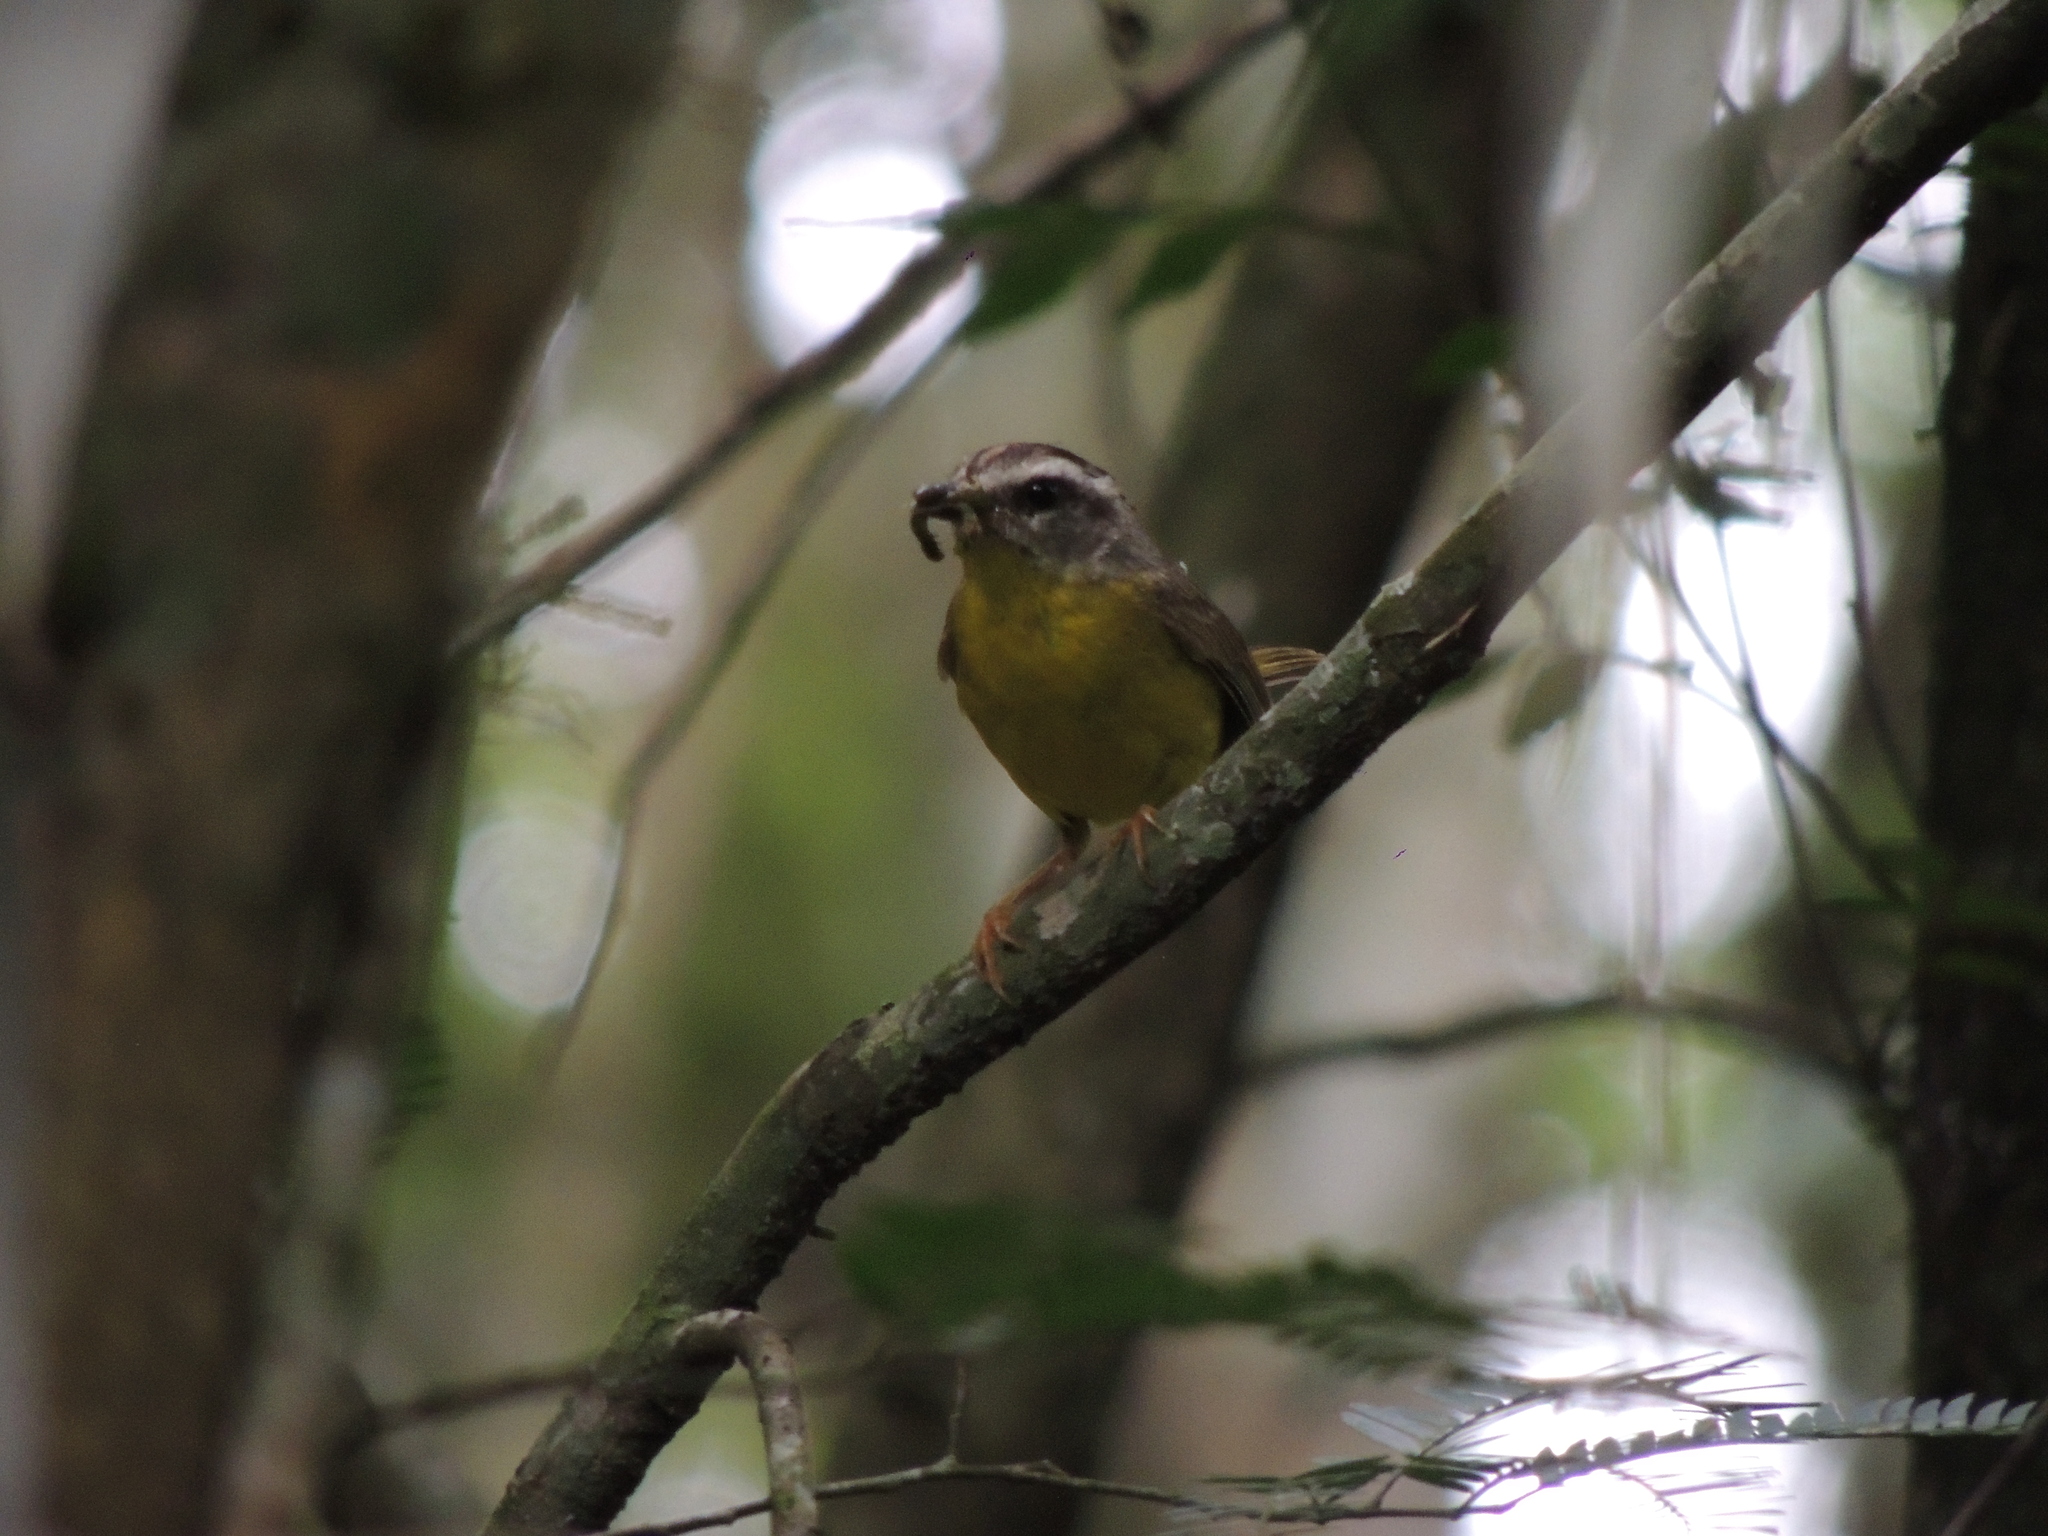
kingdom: Animalia
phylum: Chordata
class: Aves
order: Passeriformes
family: Parulidae
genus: Basileuterus
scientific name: Basileuterus culicivorus
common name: Golden-crowned warbler
